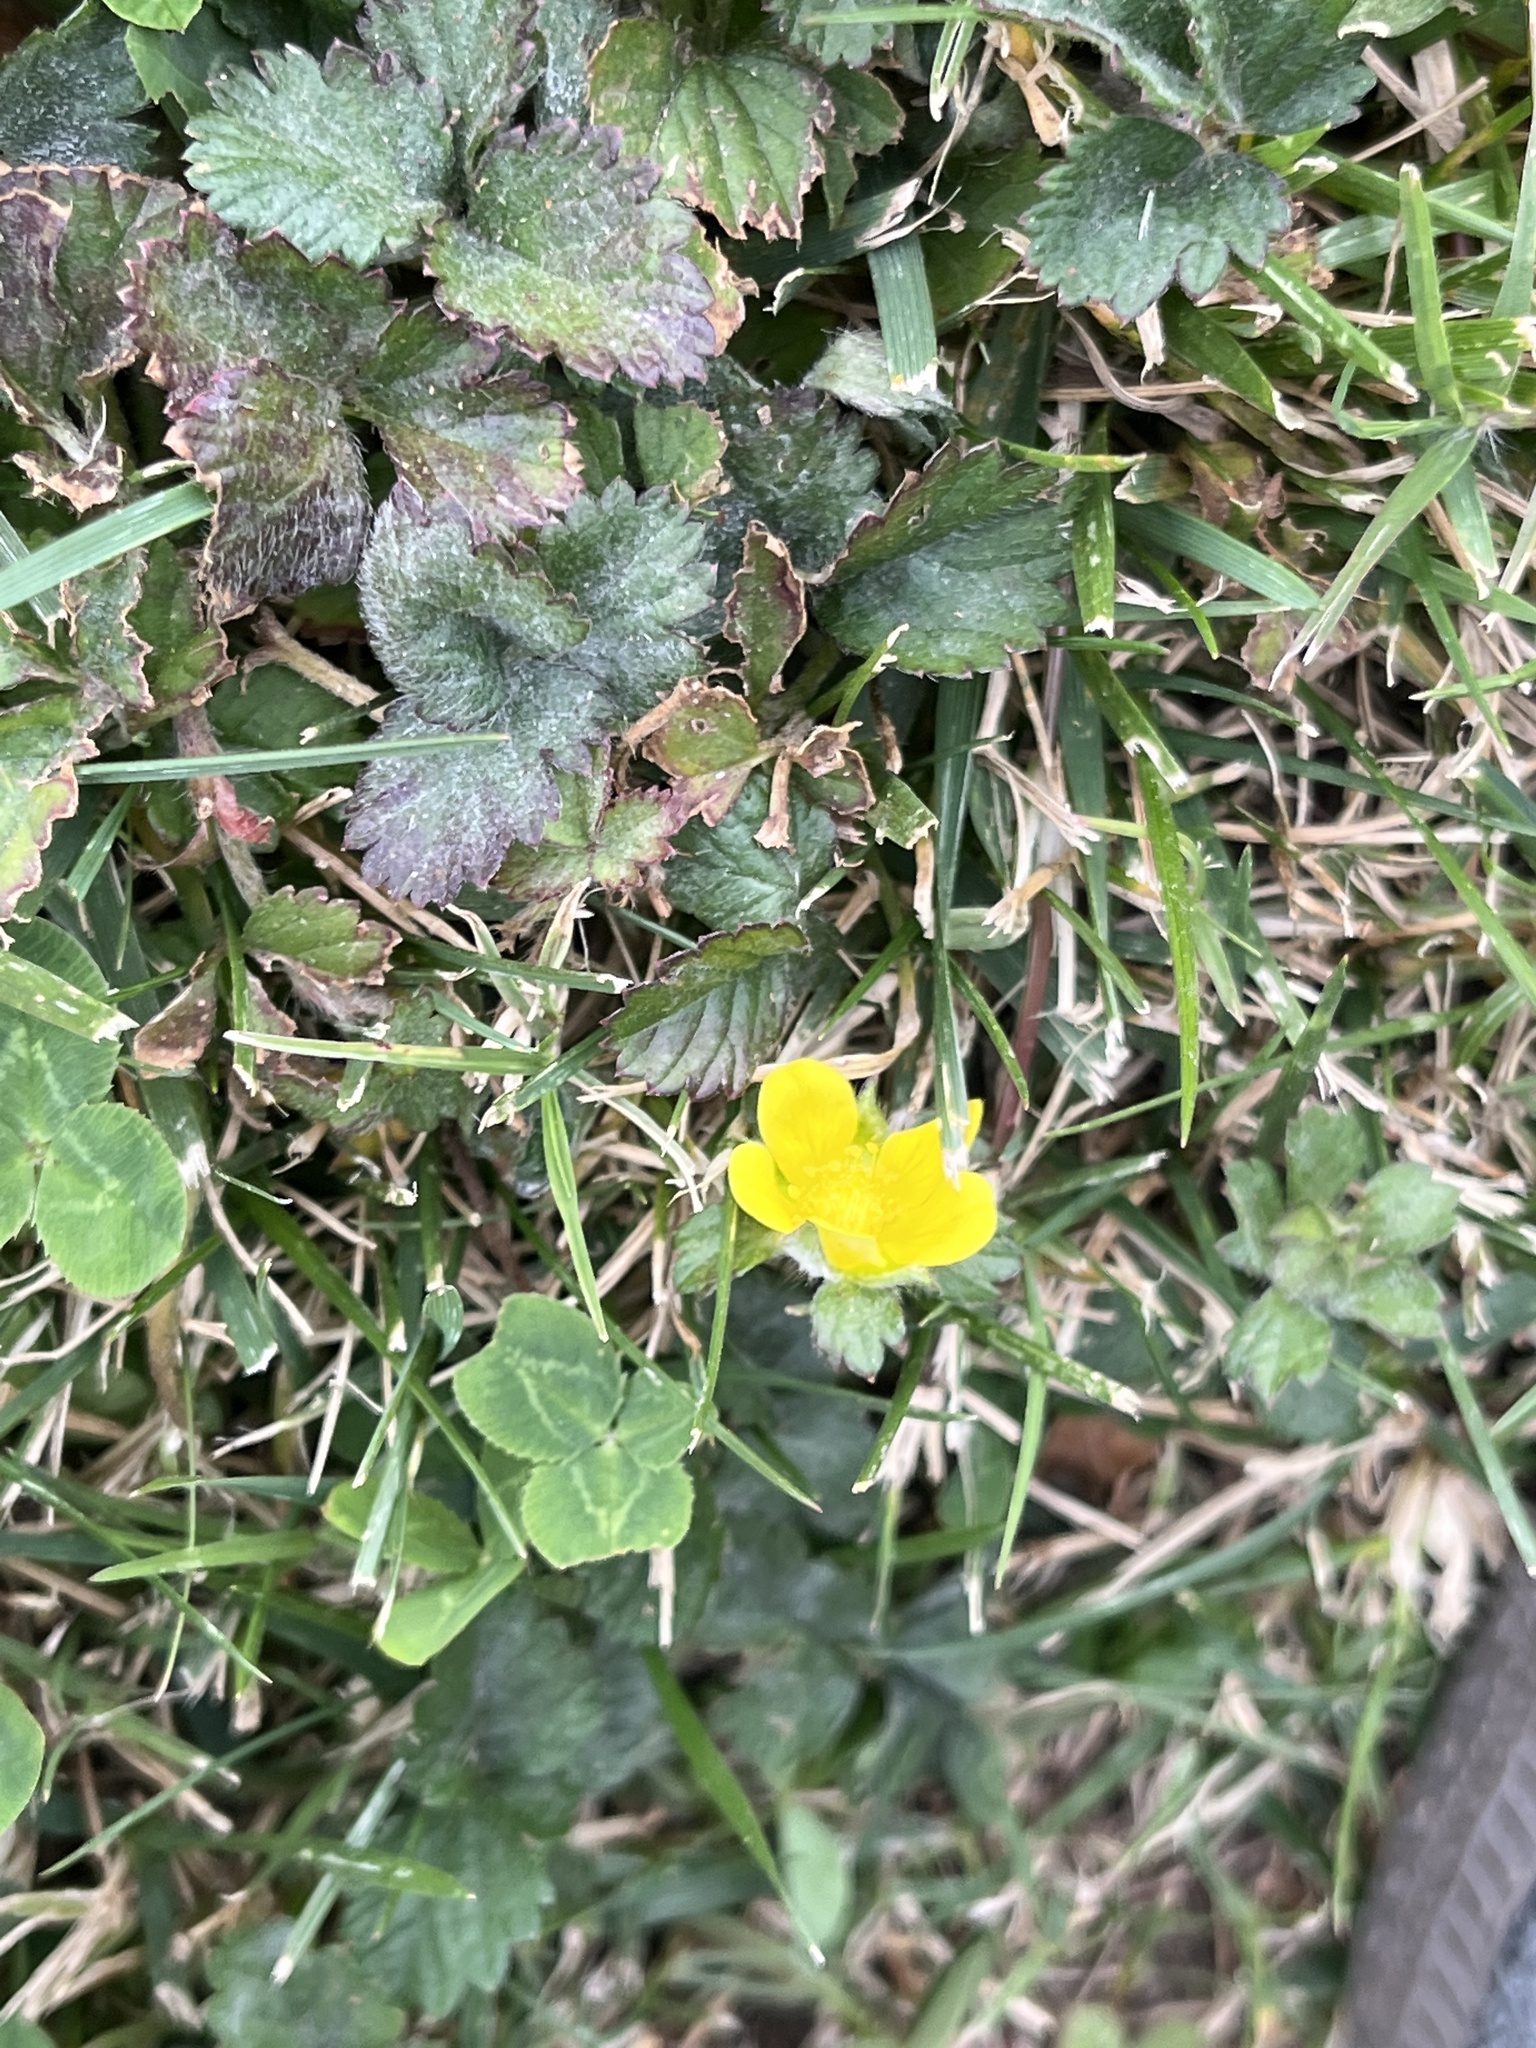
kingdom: Plantae
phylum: Tracheophyta
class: Magnoliopsida
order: Rosales
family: Rosaceae
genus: Potentilla
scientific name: Potentilla indica
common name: Yellow-flowered strawberry
